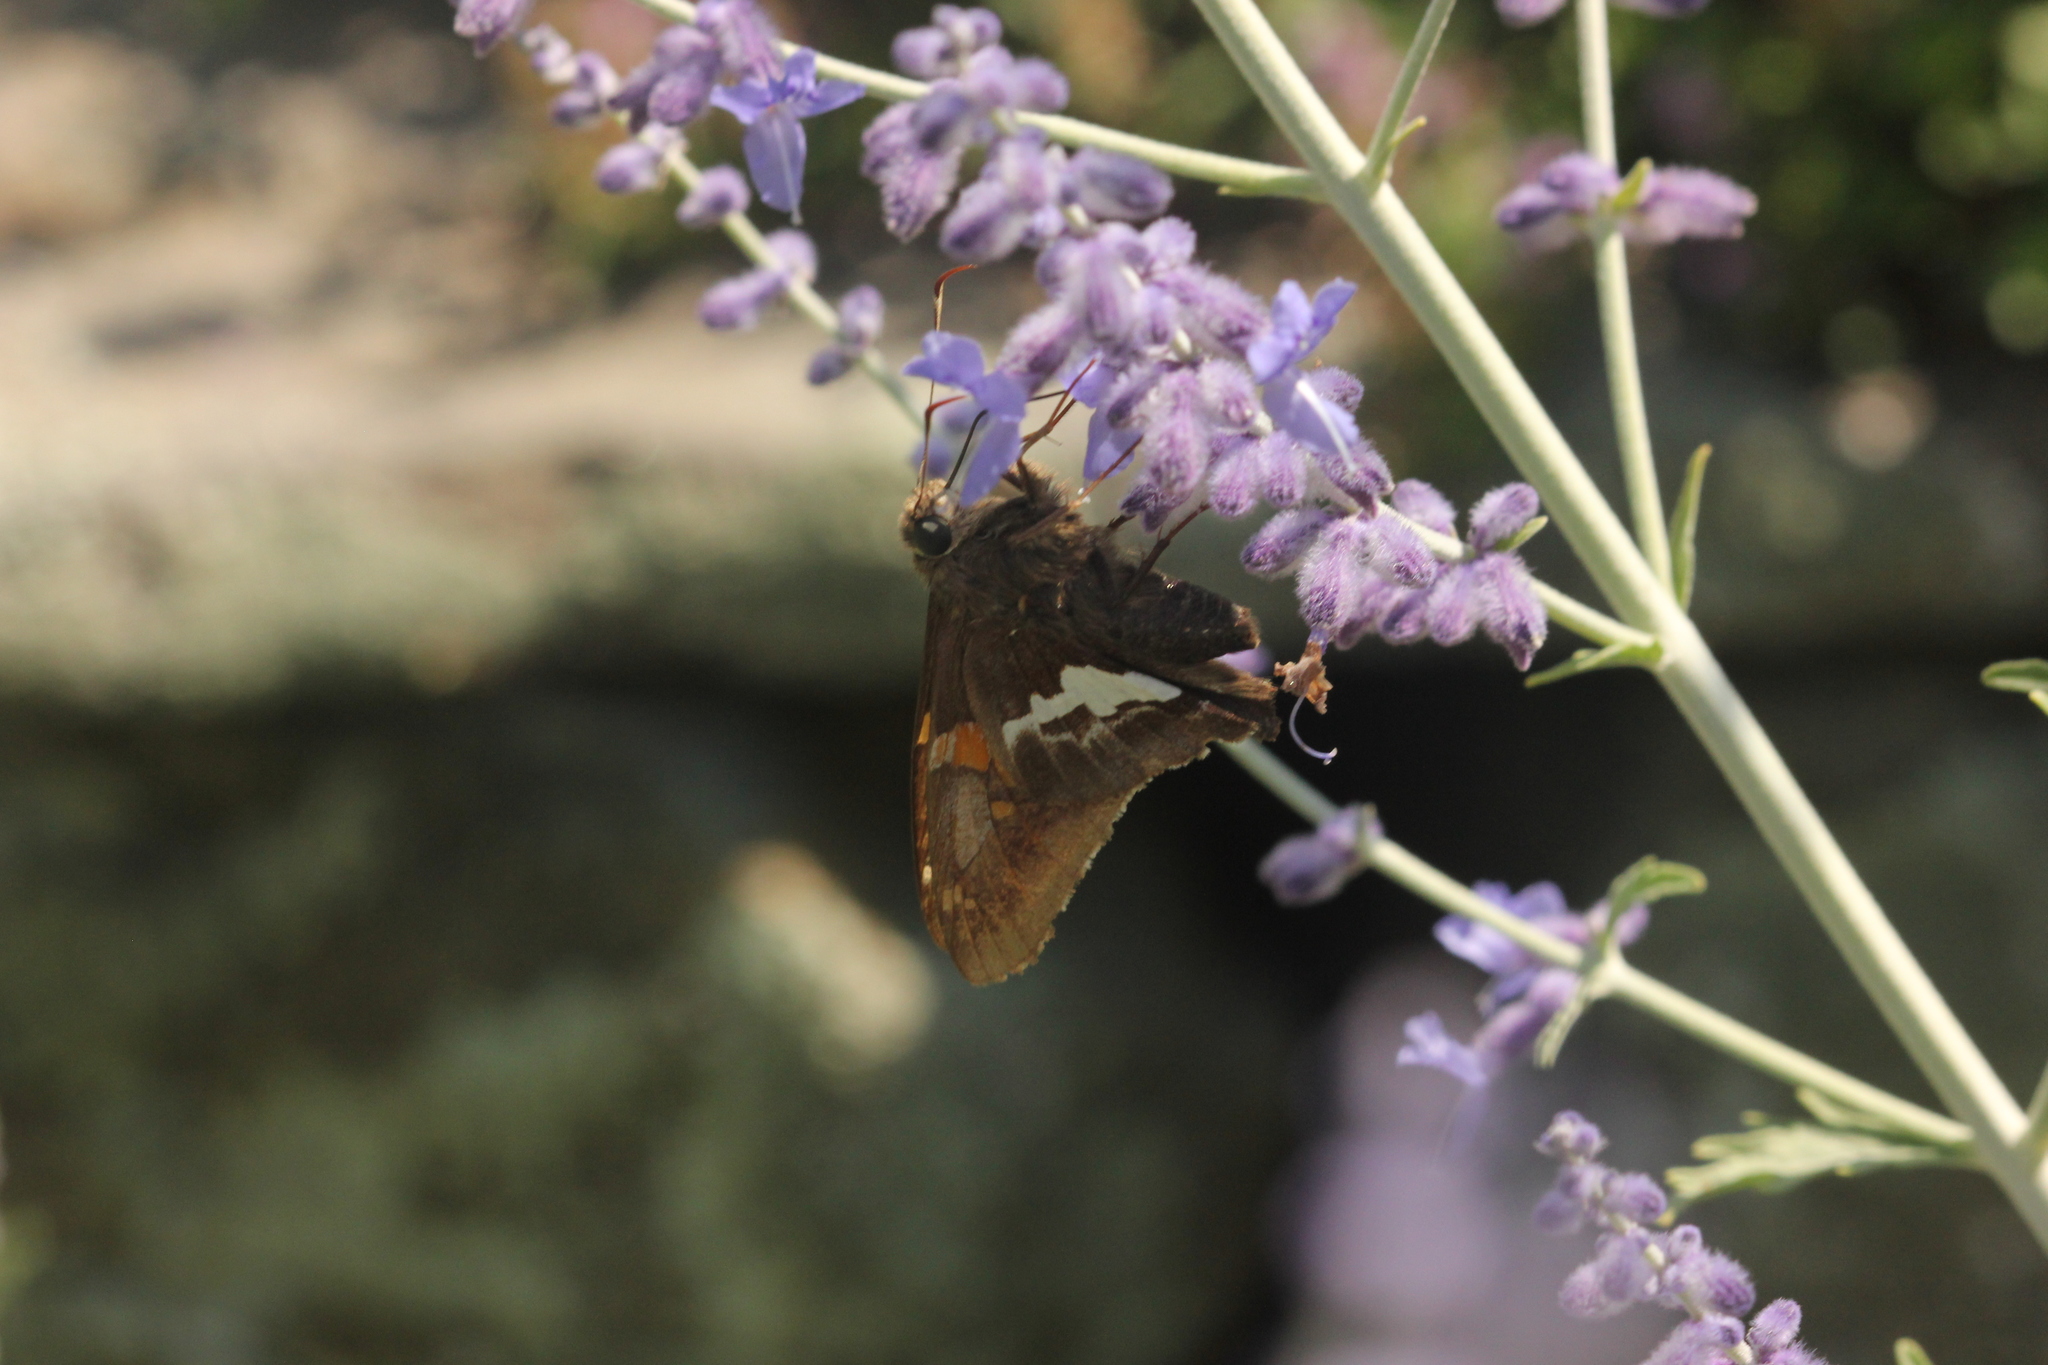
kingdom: Animalia
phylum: Arthropoda
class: Insecta
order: Lepidoptera
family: Hesperiidae
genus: Epargyreus
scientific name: Epargyreus clarus
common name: Silver-spotted skipper
